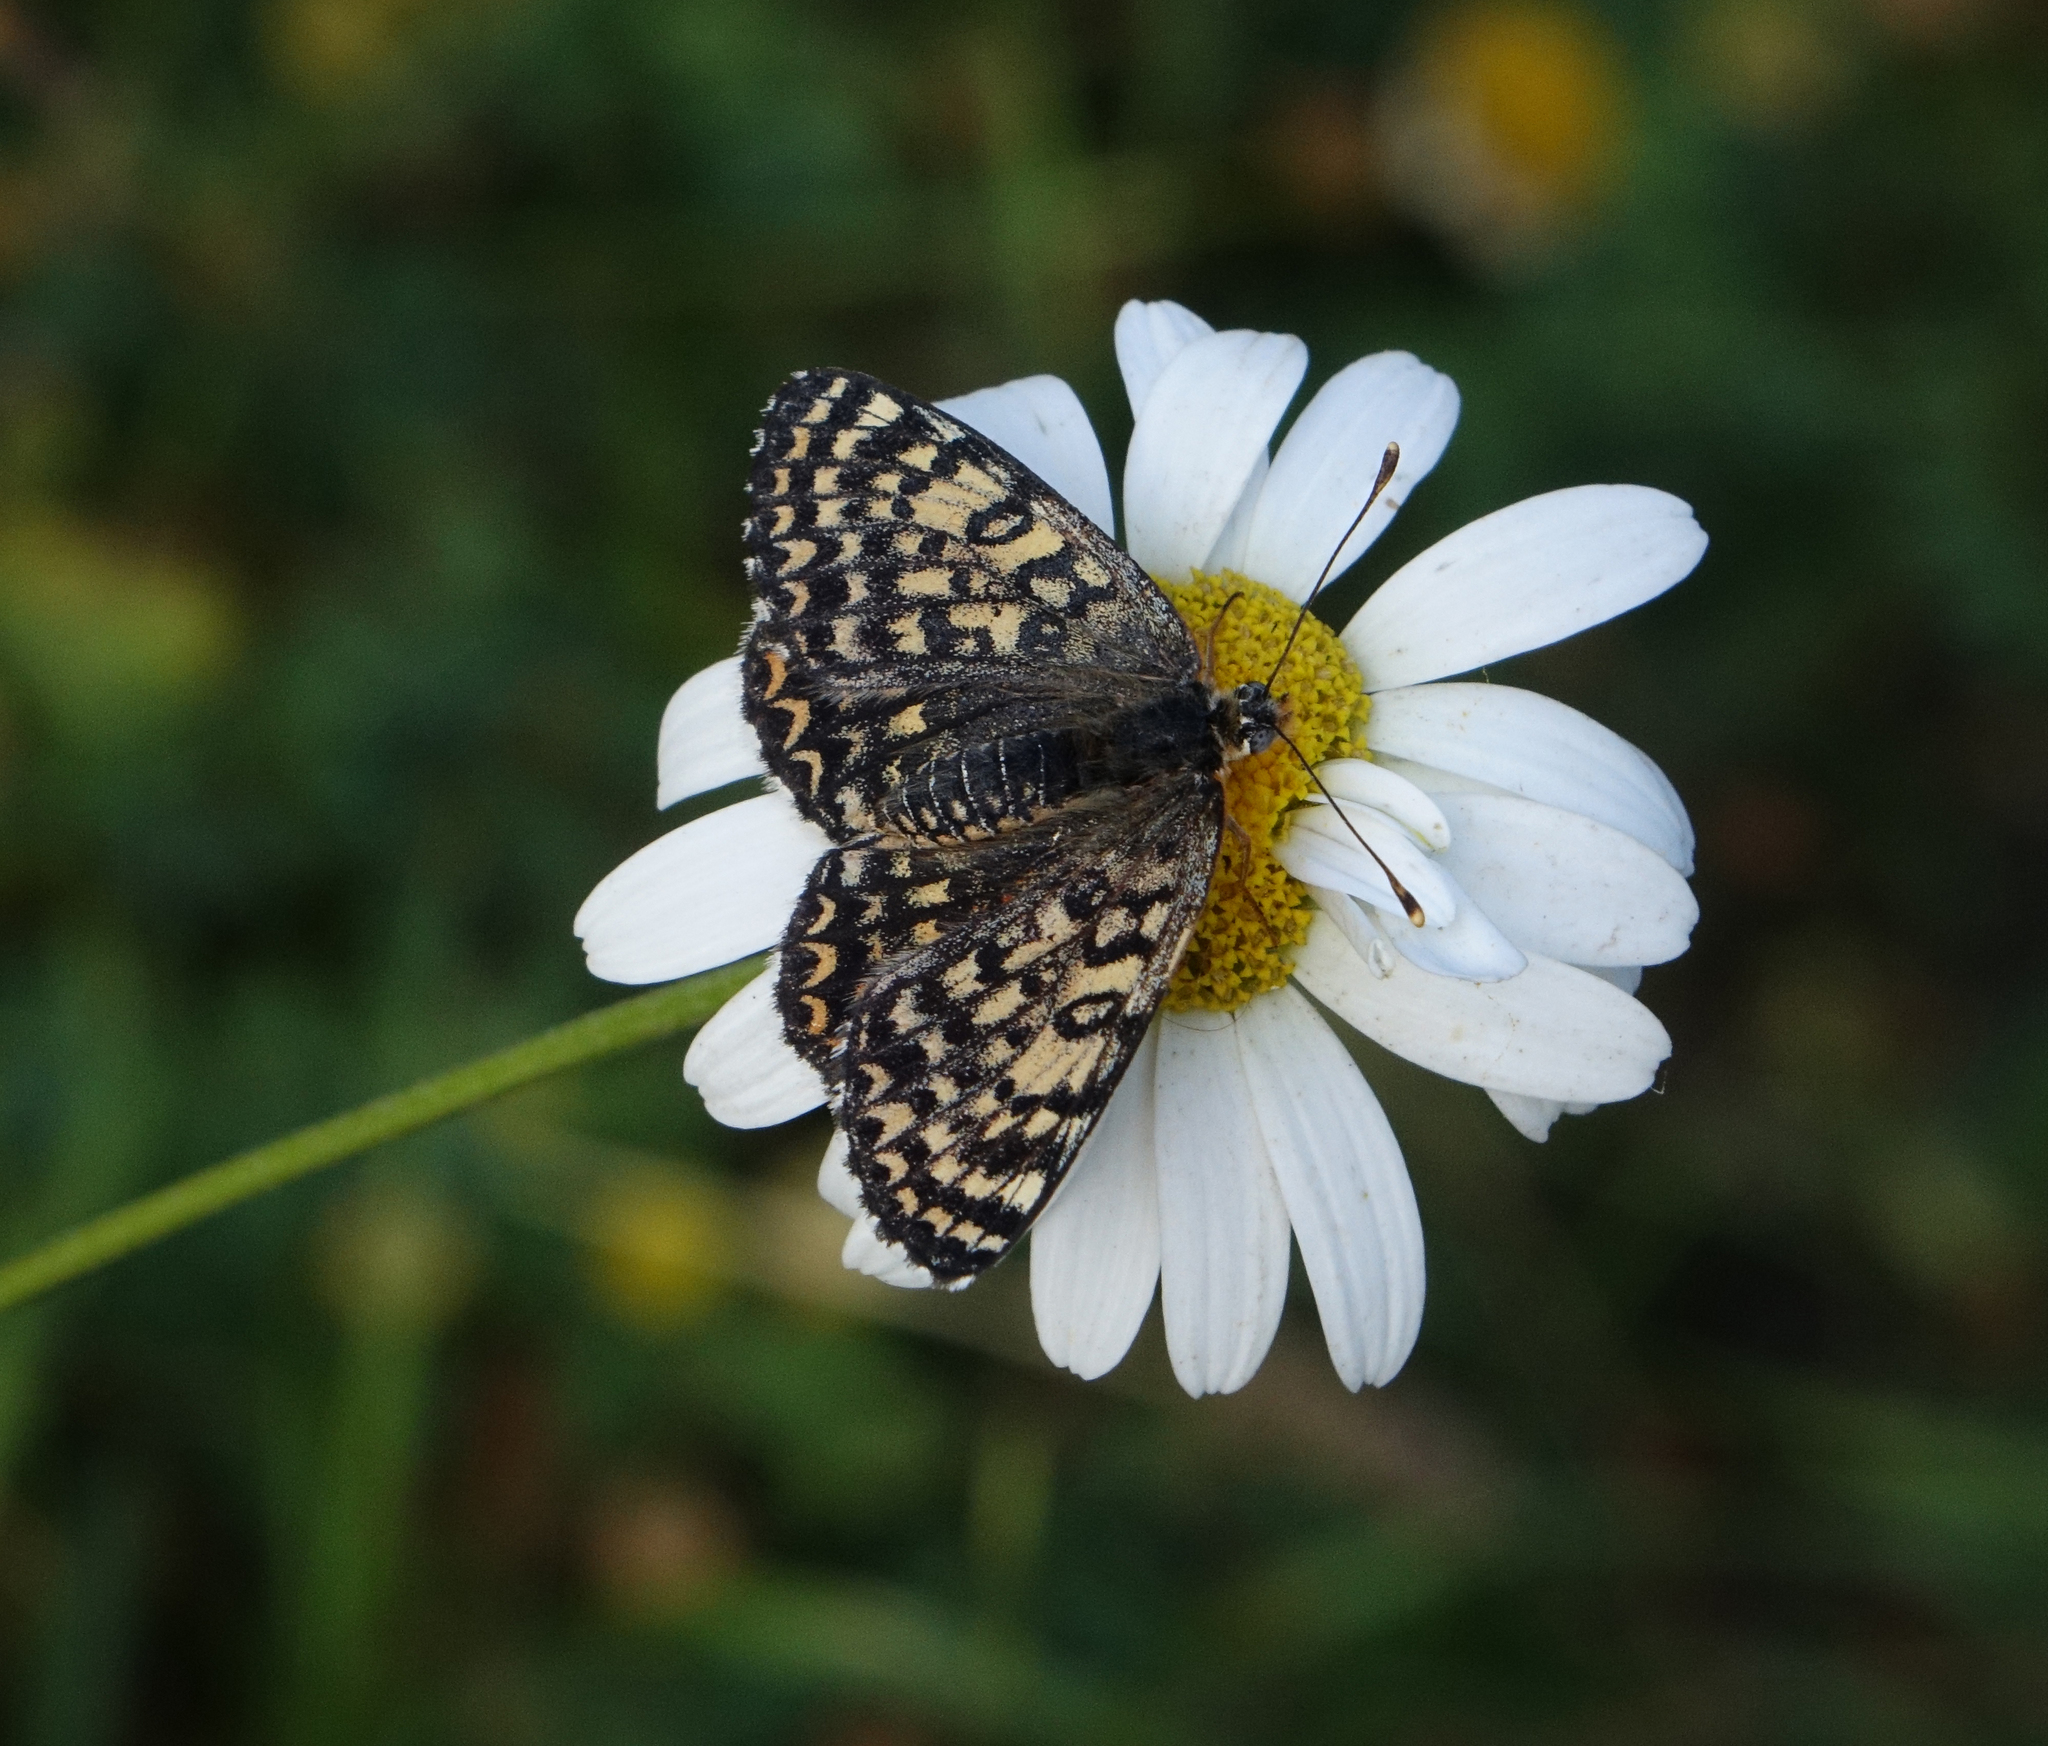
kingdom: Animalia
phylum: Arthropoda
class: Insecta
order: Lepidoptera
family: Nymphalidae
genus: Melitaea
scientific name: Melitaea cinxia
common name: Glanville fritillary
